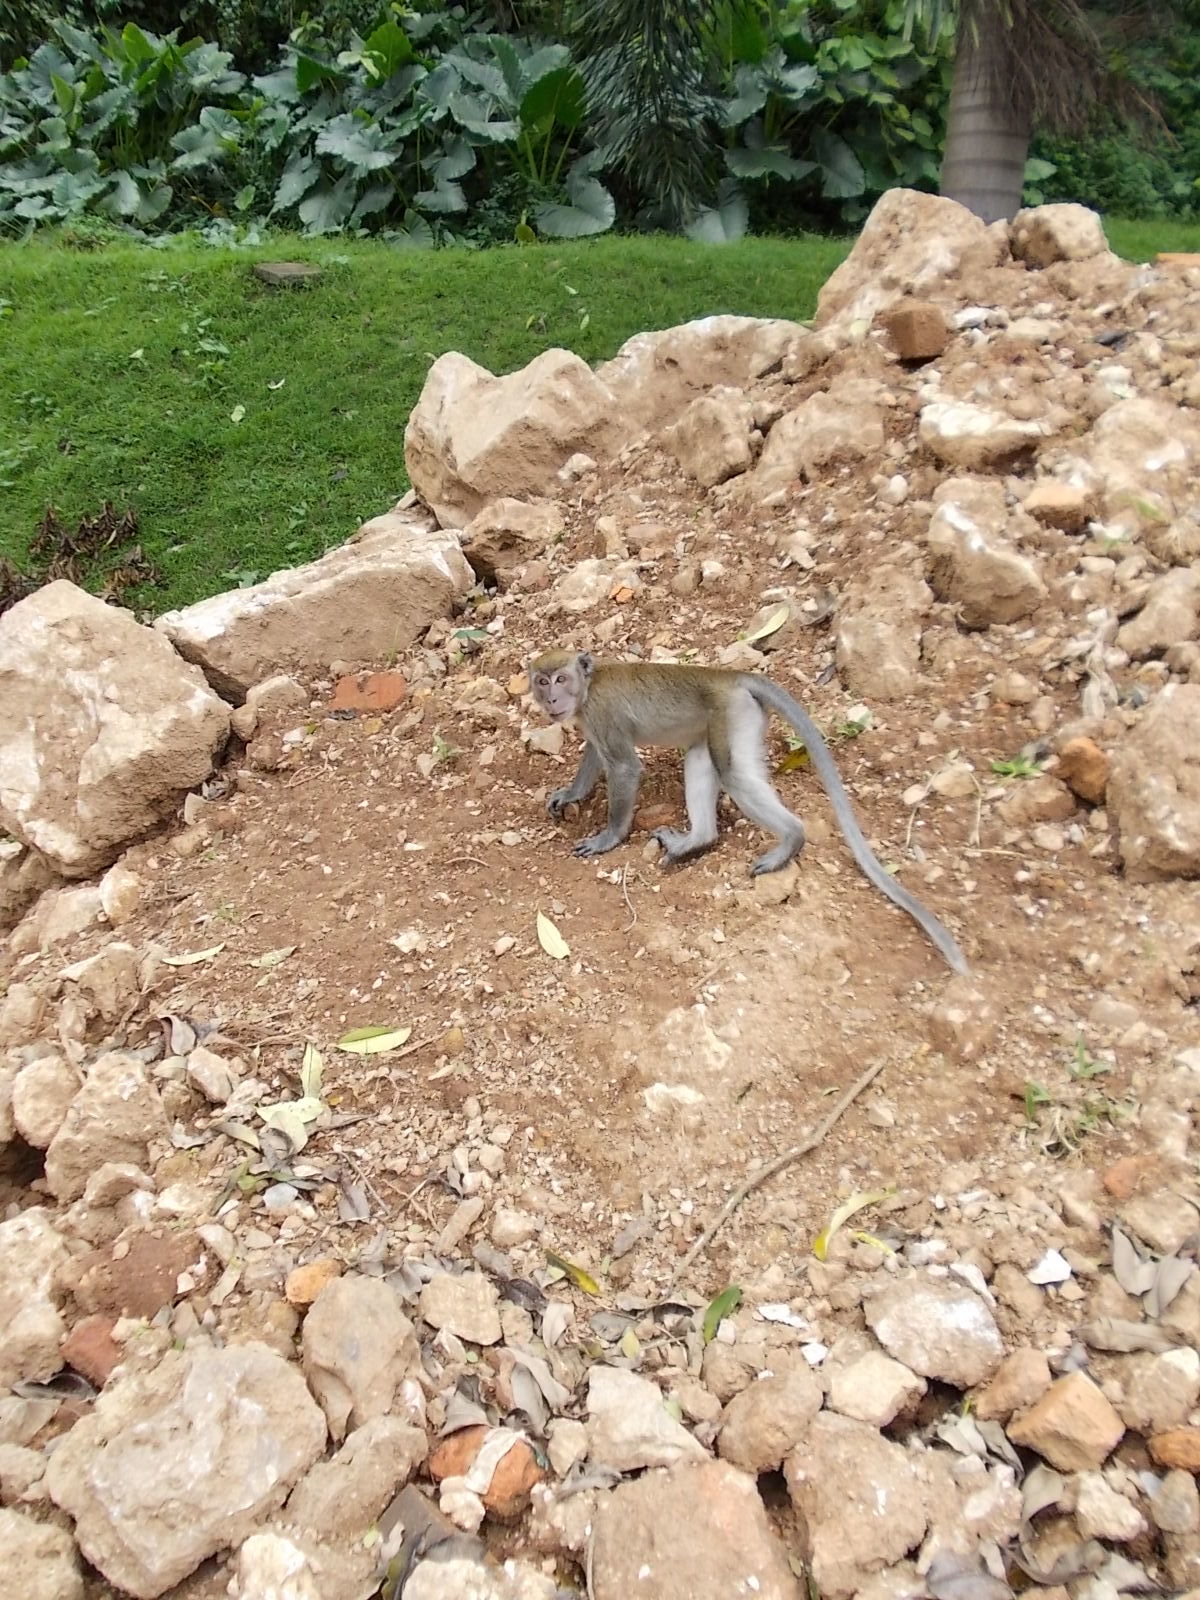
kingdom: Animalia
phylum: Chordata
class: Mammalia
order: Primates
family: Cercopithecidae
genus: Macaca
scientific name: Macaca fascicularis
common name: Crab-eating macaque
